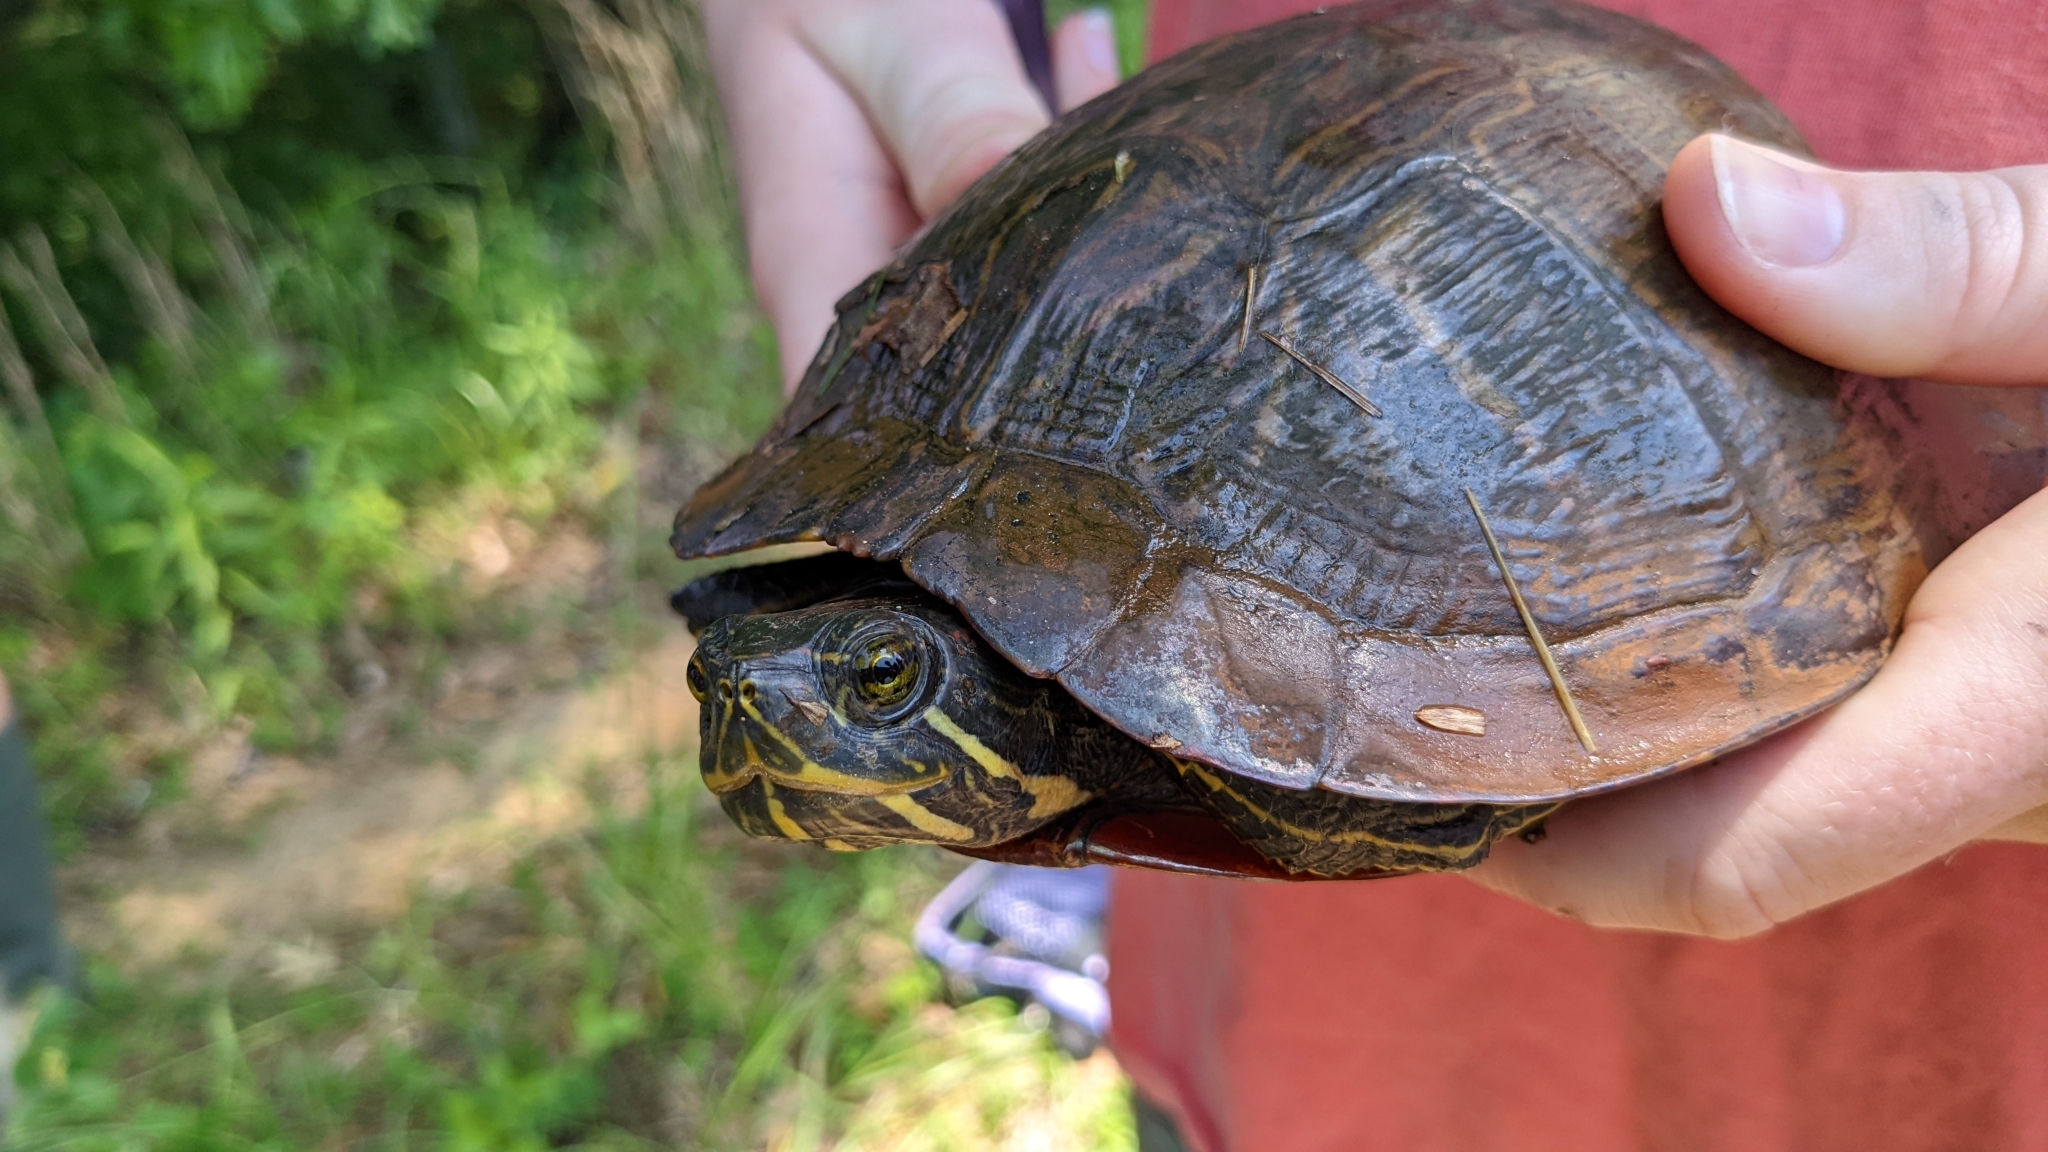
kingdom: Animalia
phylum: Chordata
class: Testudines
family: Emydidae
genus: Trachemys
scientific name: Trachemys scripta
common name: Slider
